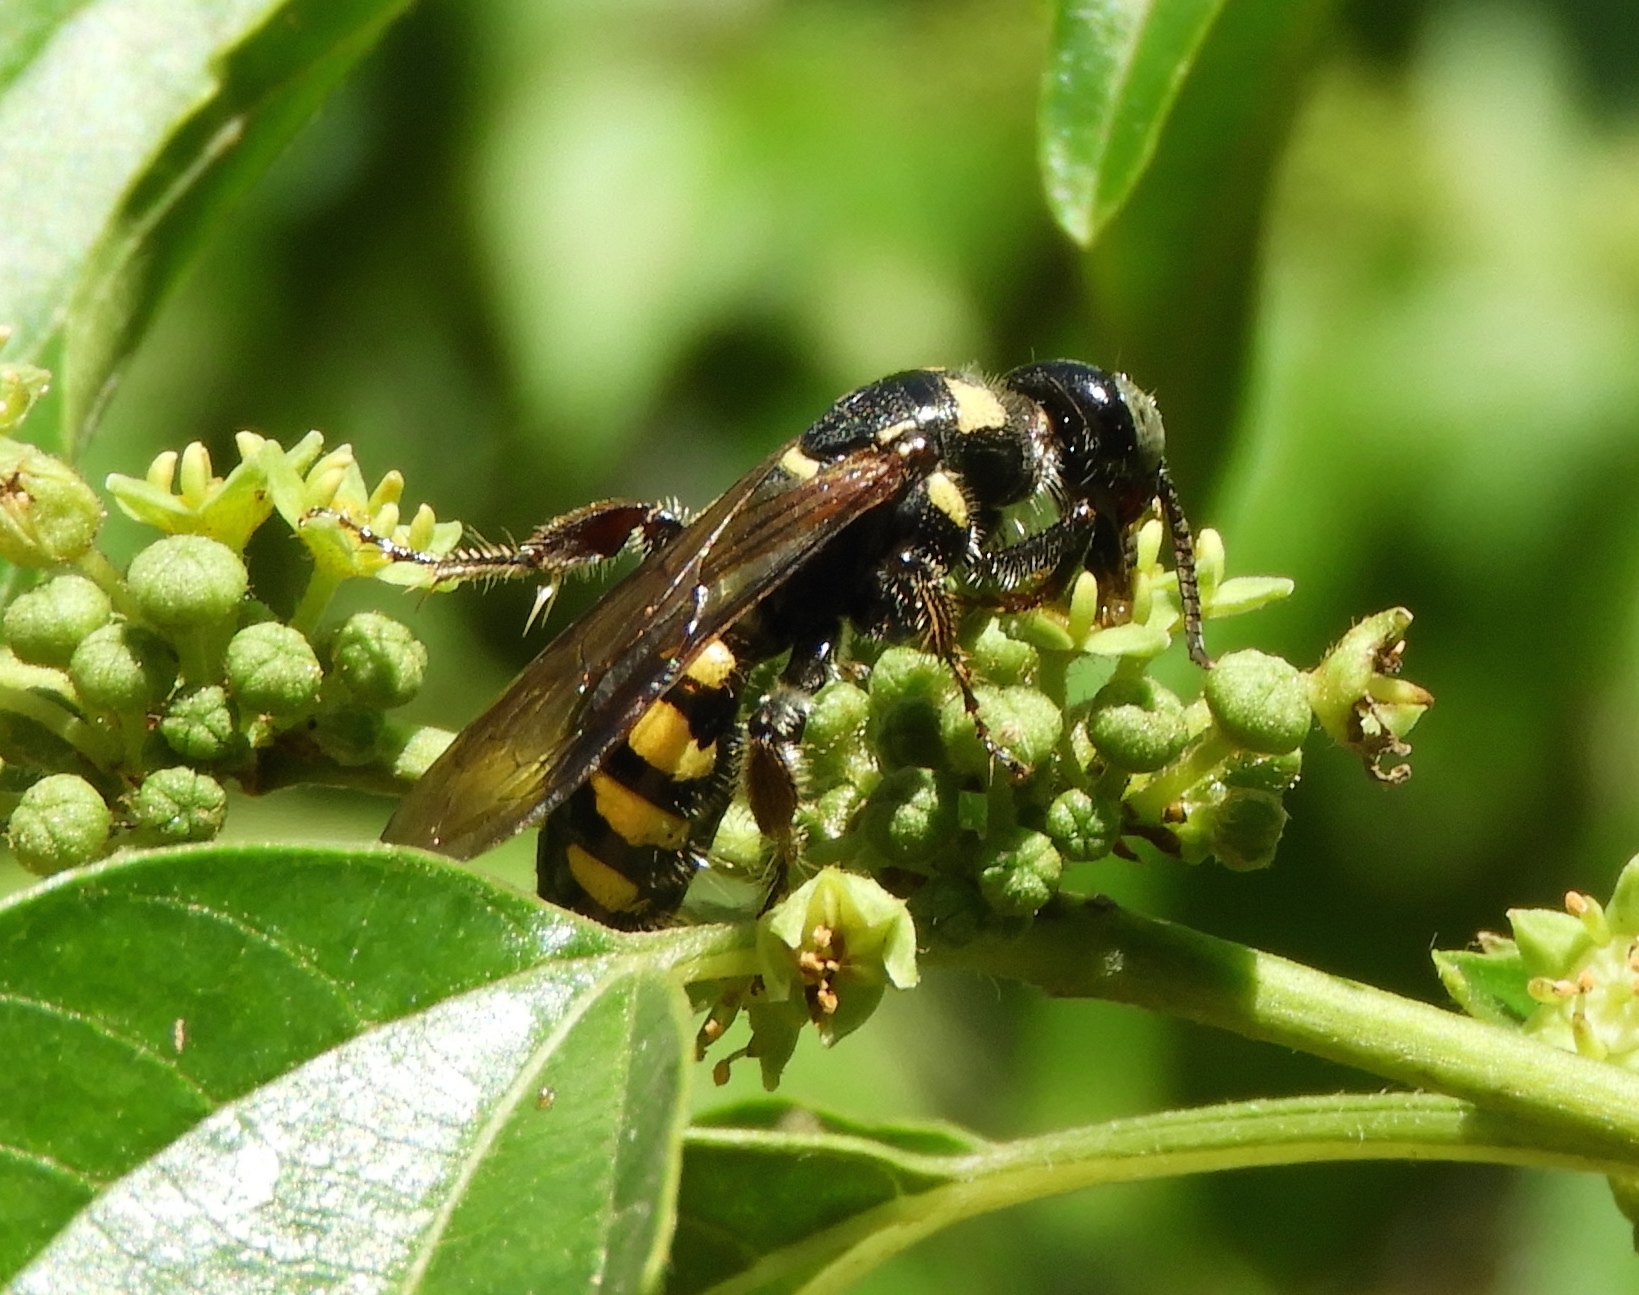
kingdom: Animalia
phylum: Arthropoda
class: Insecta
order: Hymenoptera
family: Tiphiidae
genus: Myzinum
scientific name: Myzinum
